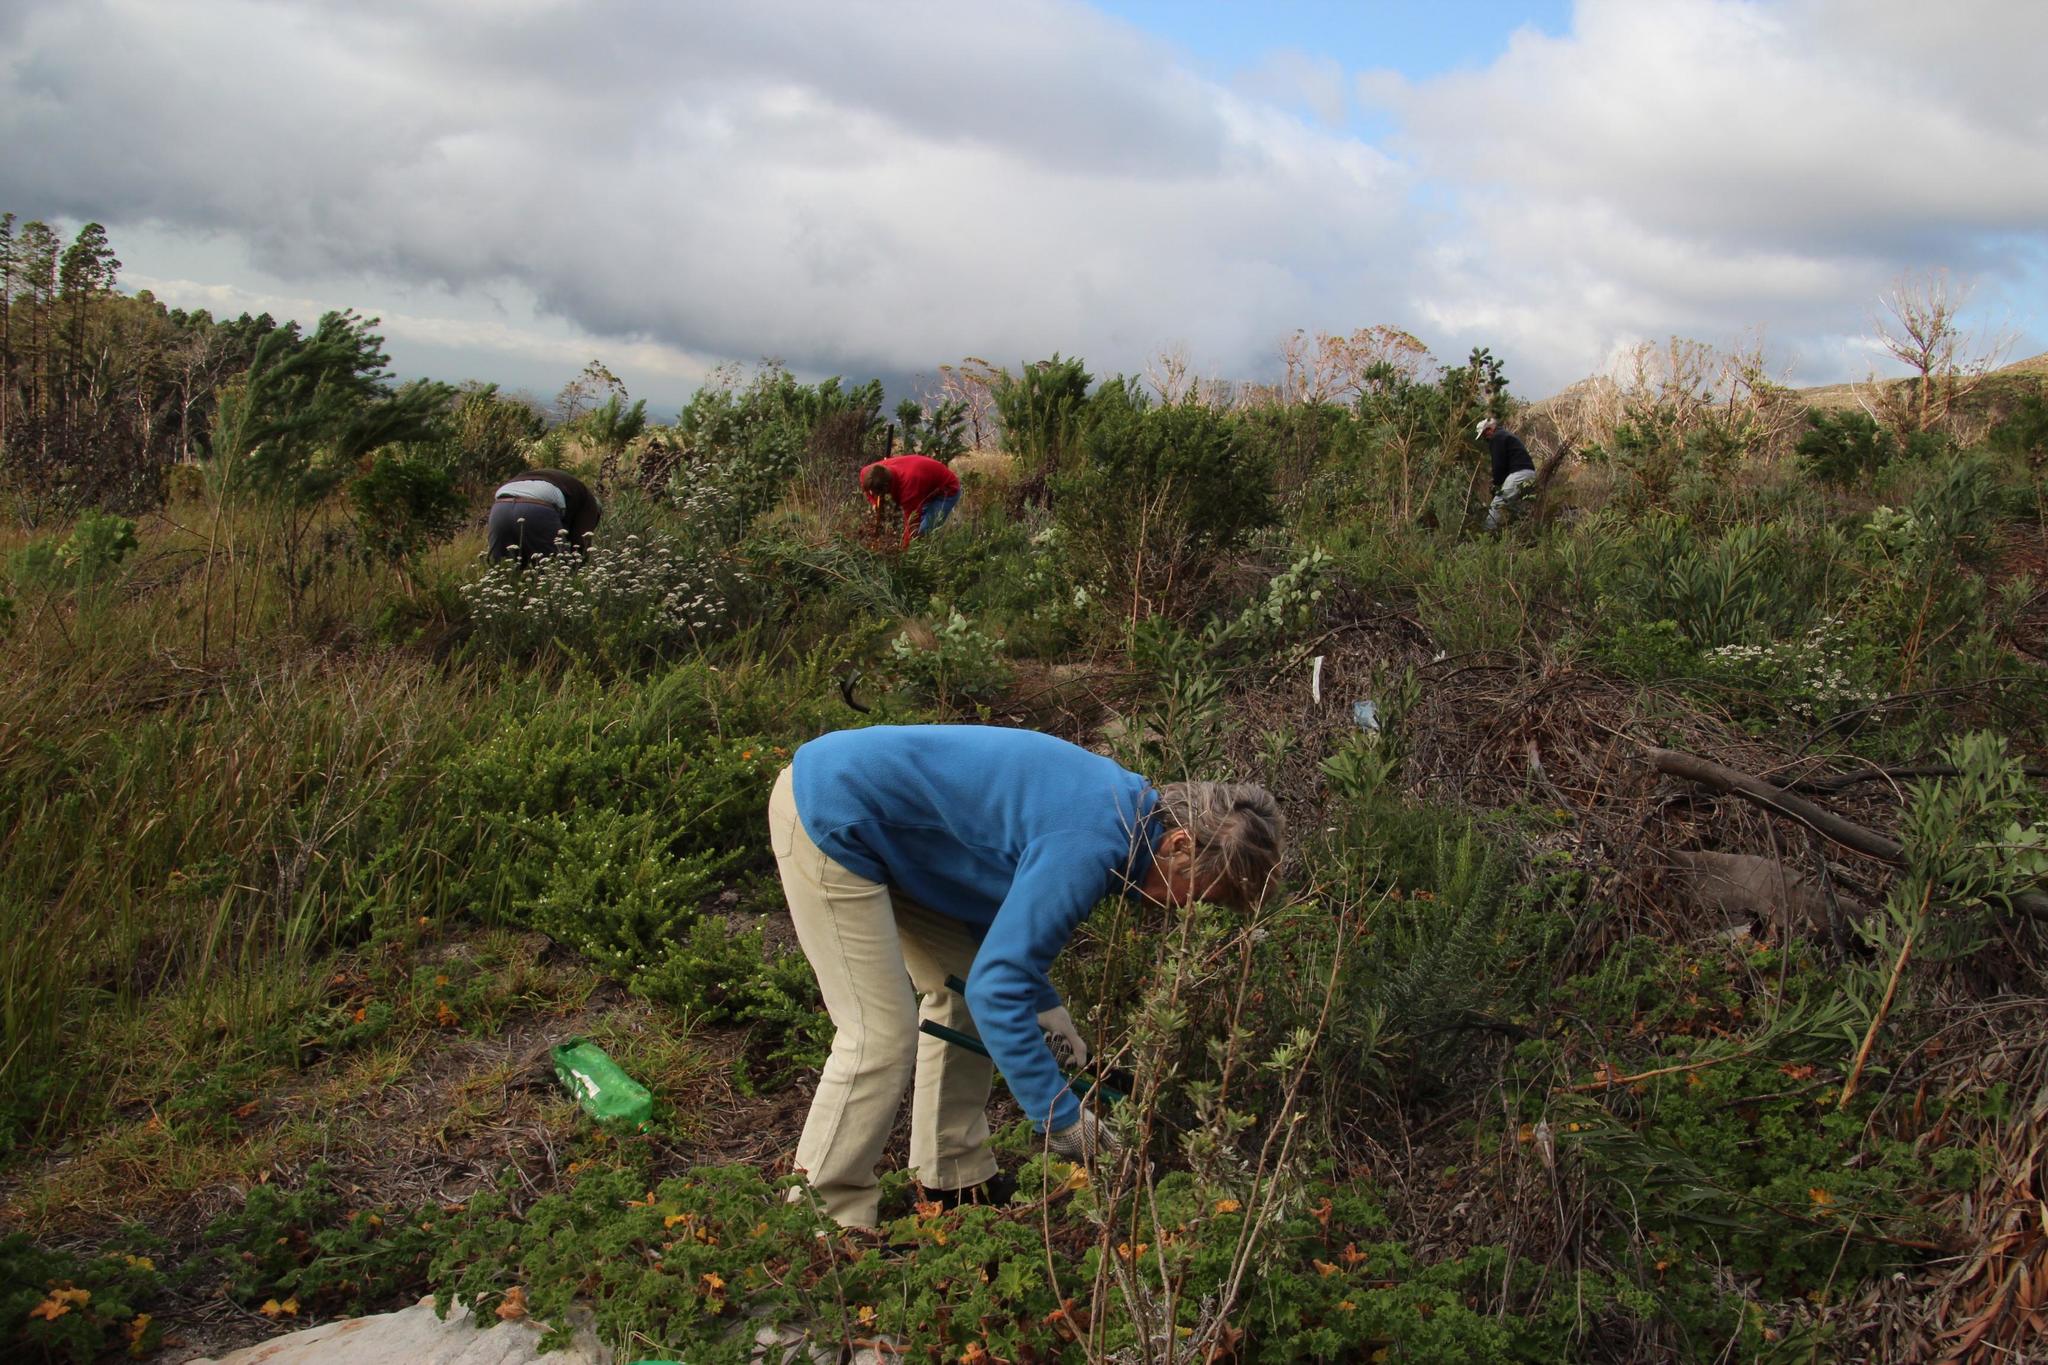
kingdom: Plantae
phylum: Tracheophyta
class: Magnoliopsida
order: Fabales
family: Fabaceae
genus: Psoralea
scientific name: Psoralea pinnata
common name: African scurfpea
